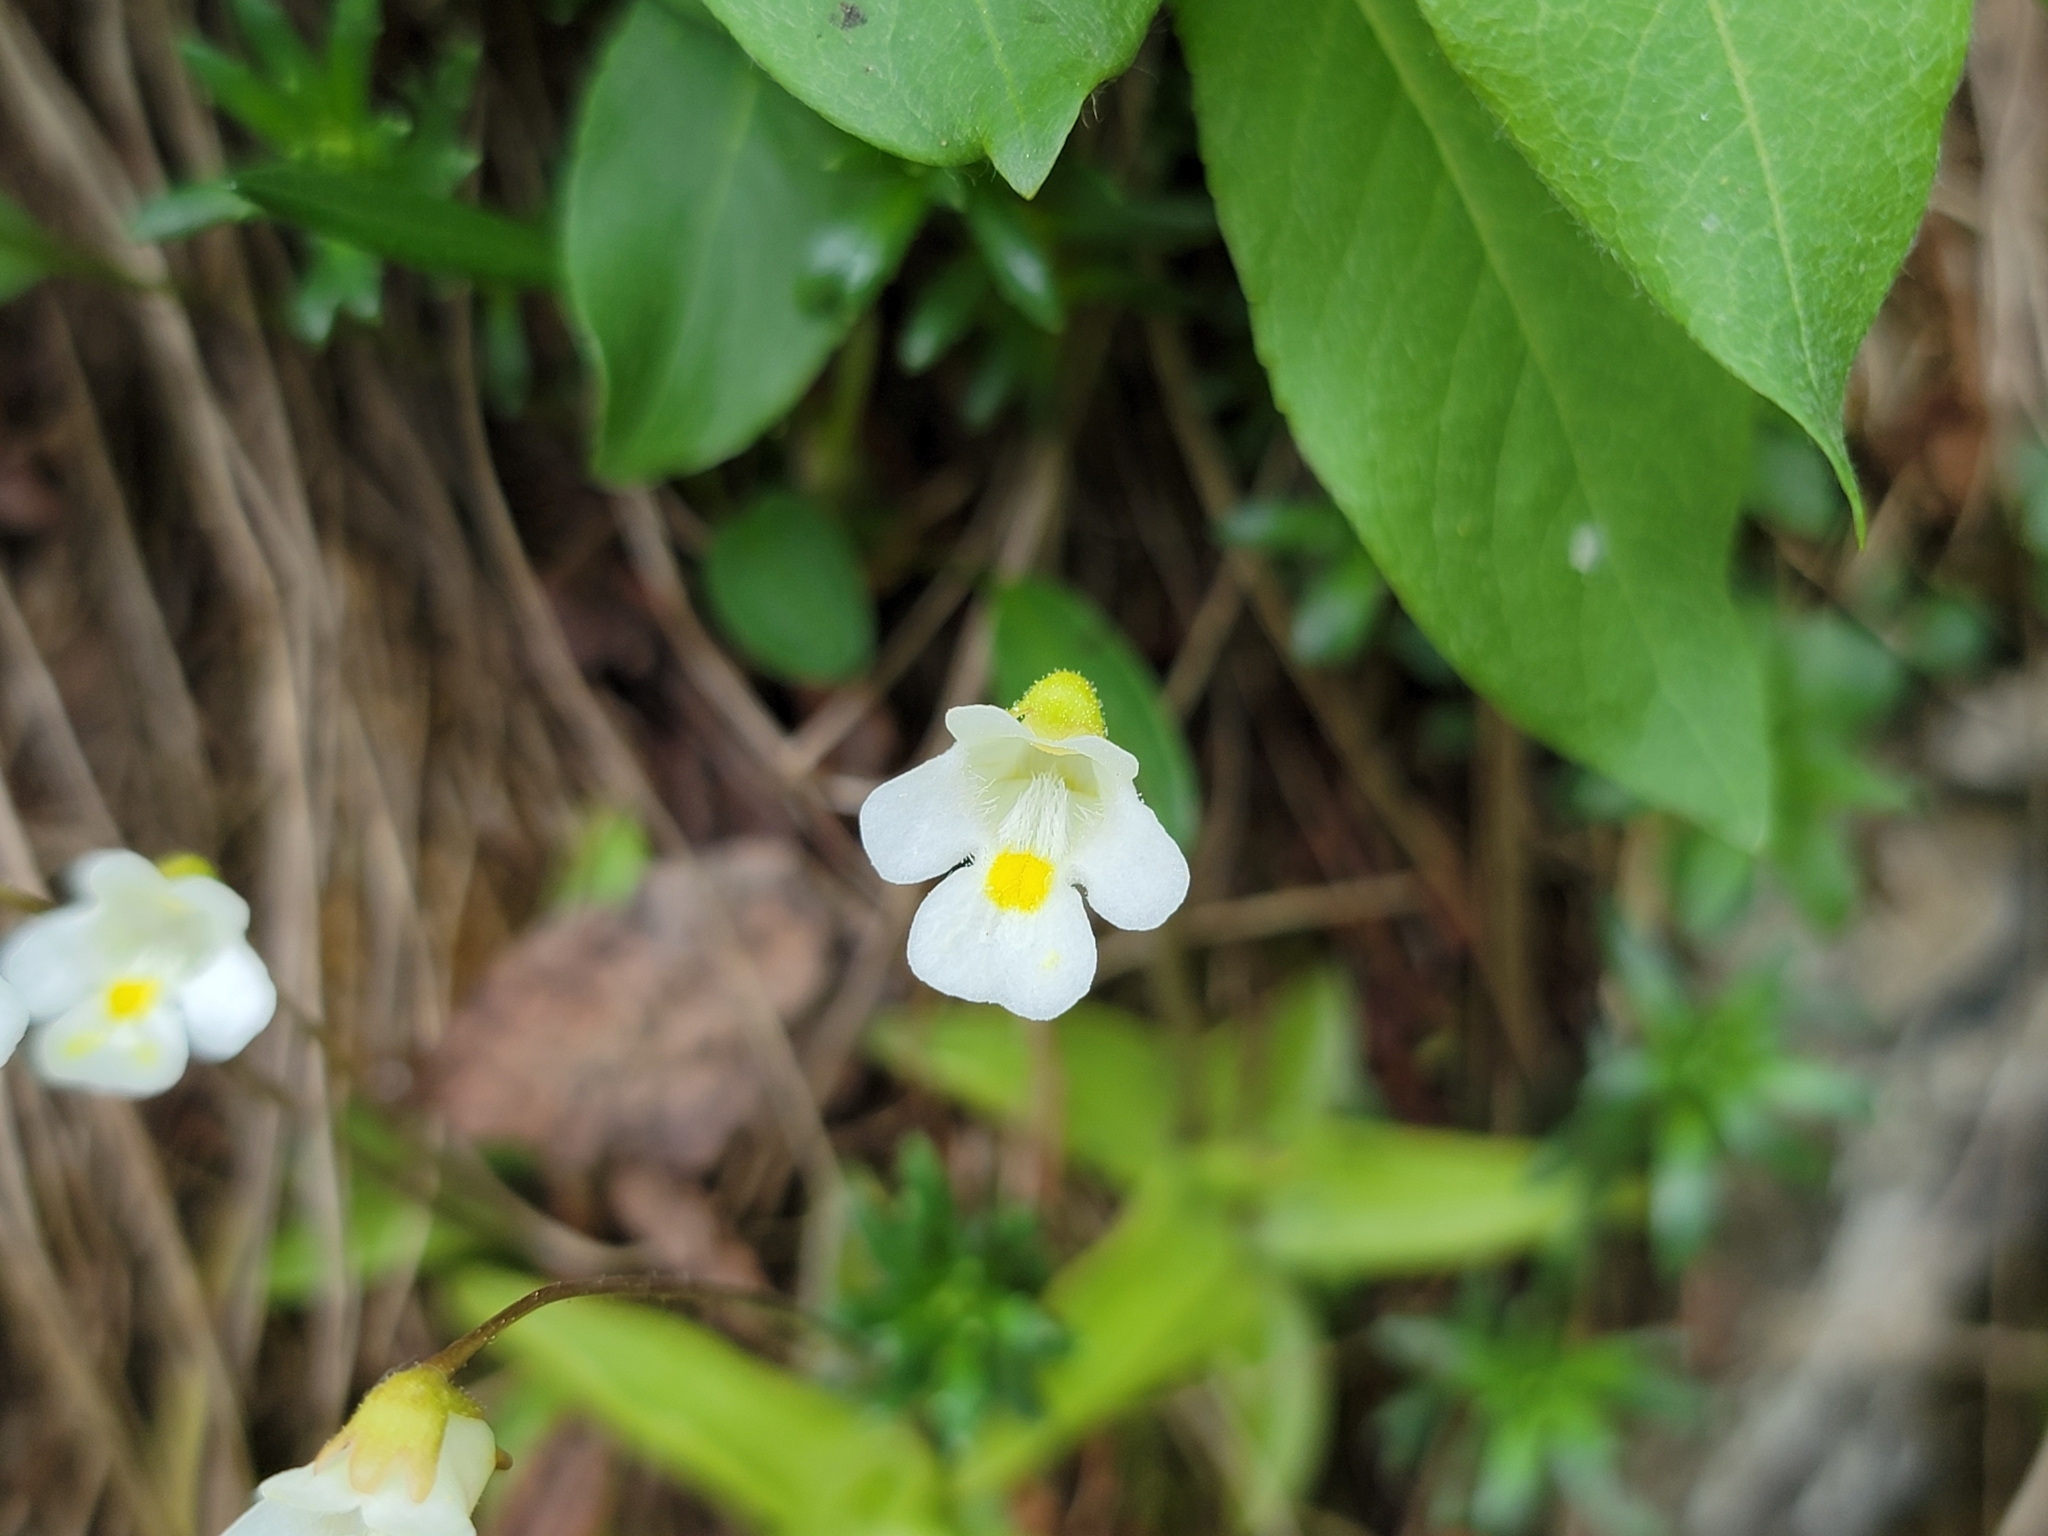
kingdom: Plantae
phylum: Tracheophyta
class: Magnoliopsida
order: Lamiales
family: Lentibulariaceae
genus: Pinguicula
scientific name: Pinguicula alpina
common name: Alpine butterwort
